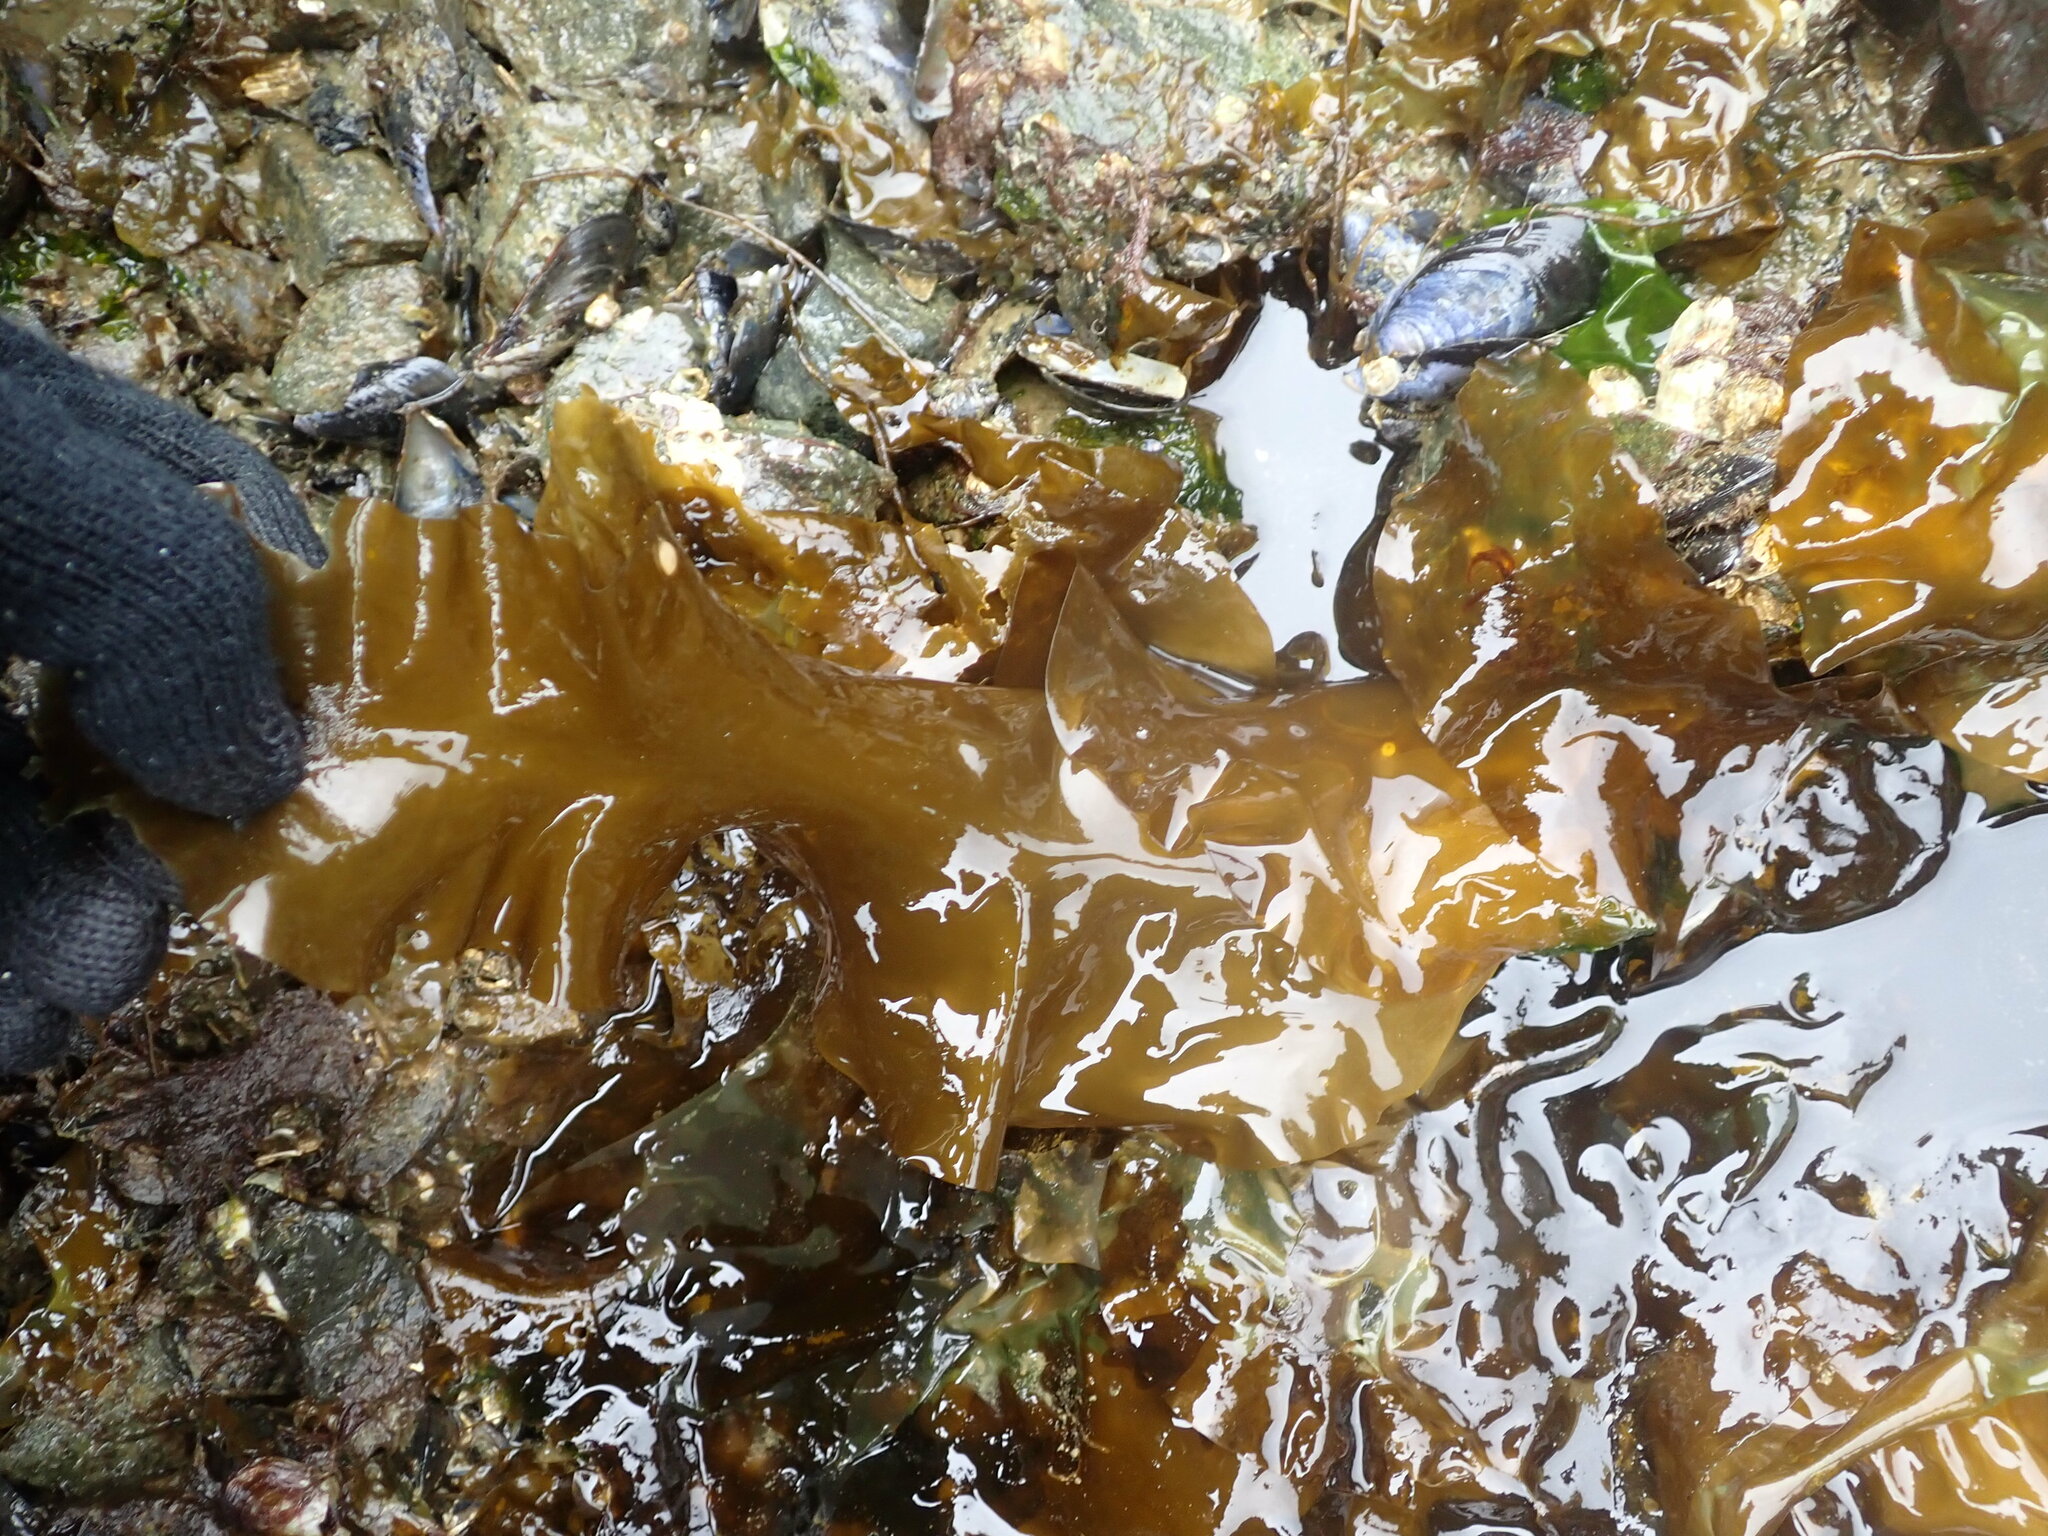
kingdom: Chromista
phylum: Ochrophyta
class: Phaeophyceae
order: Laminariales
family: Laminariaceae
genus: Saccharina
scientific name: Saccharina latissima
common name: Poor man's weather glass
